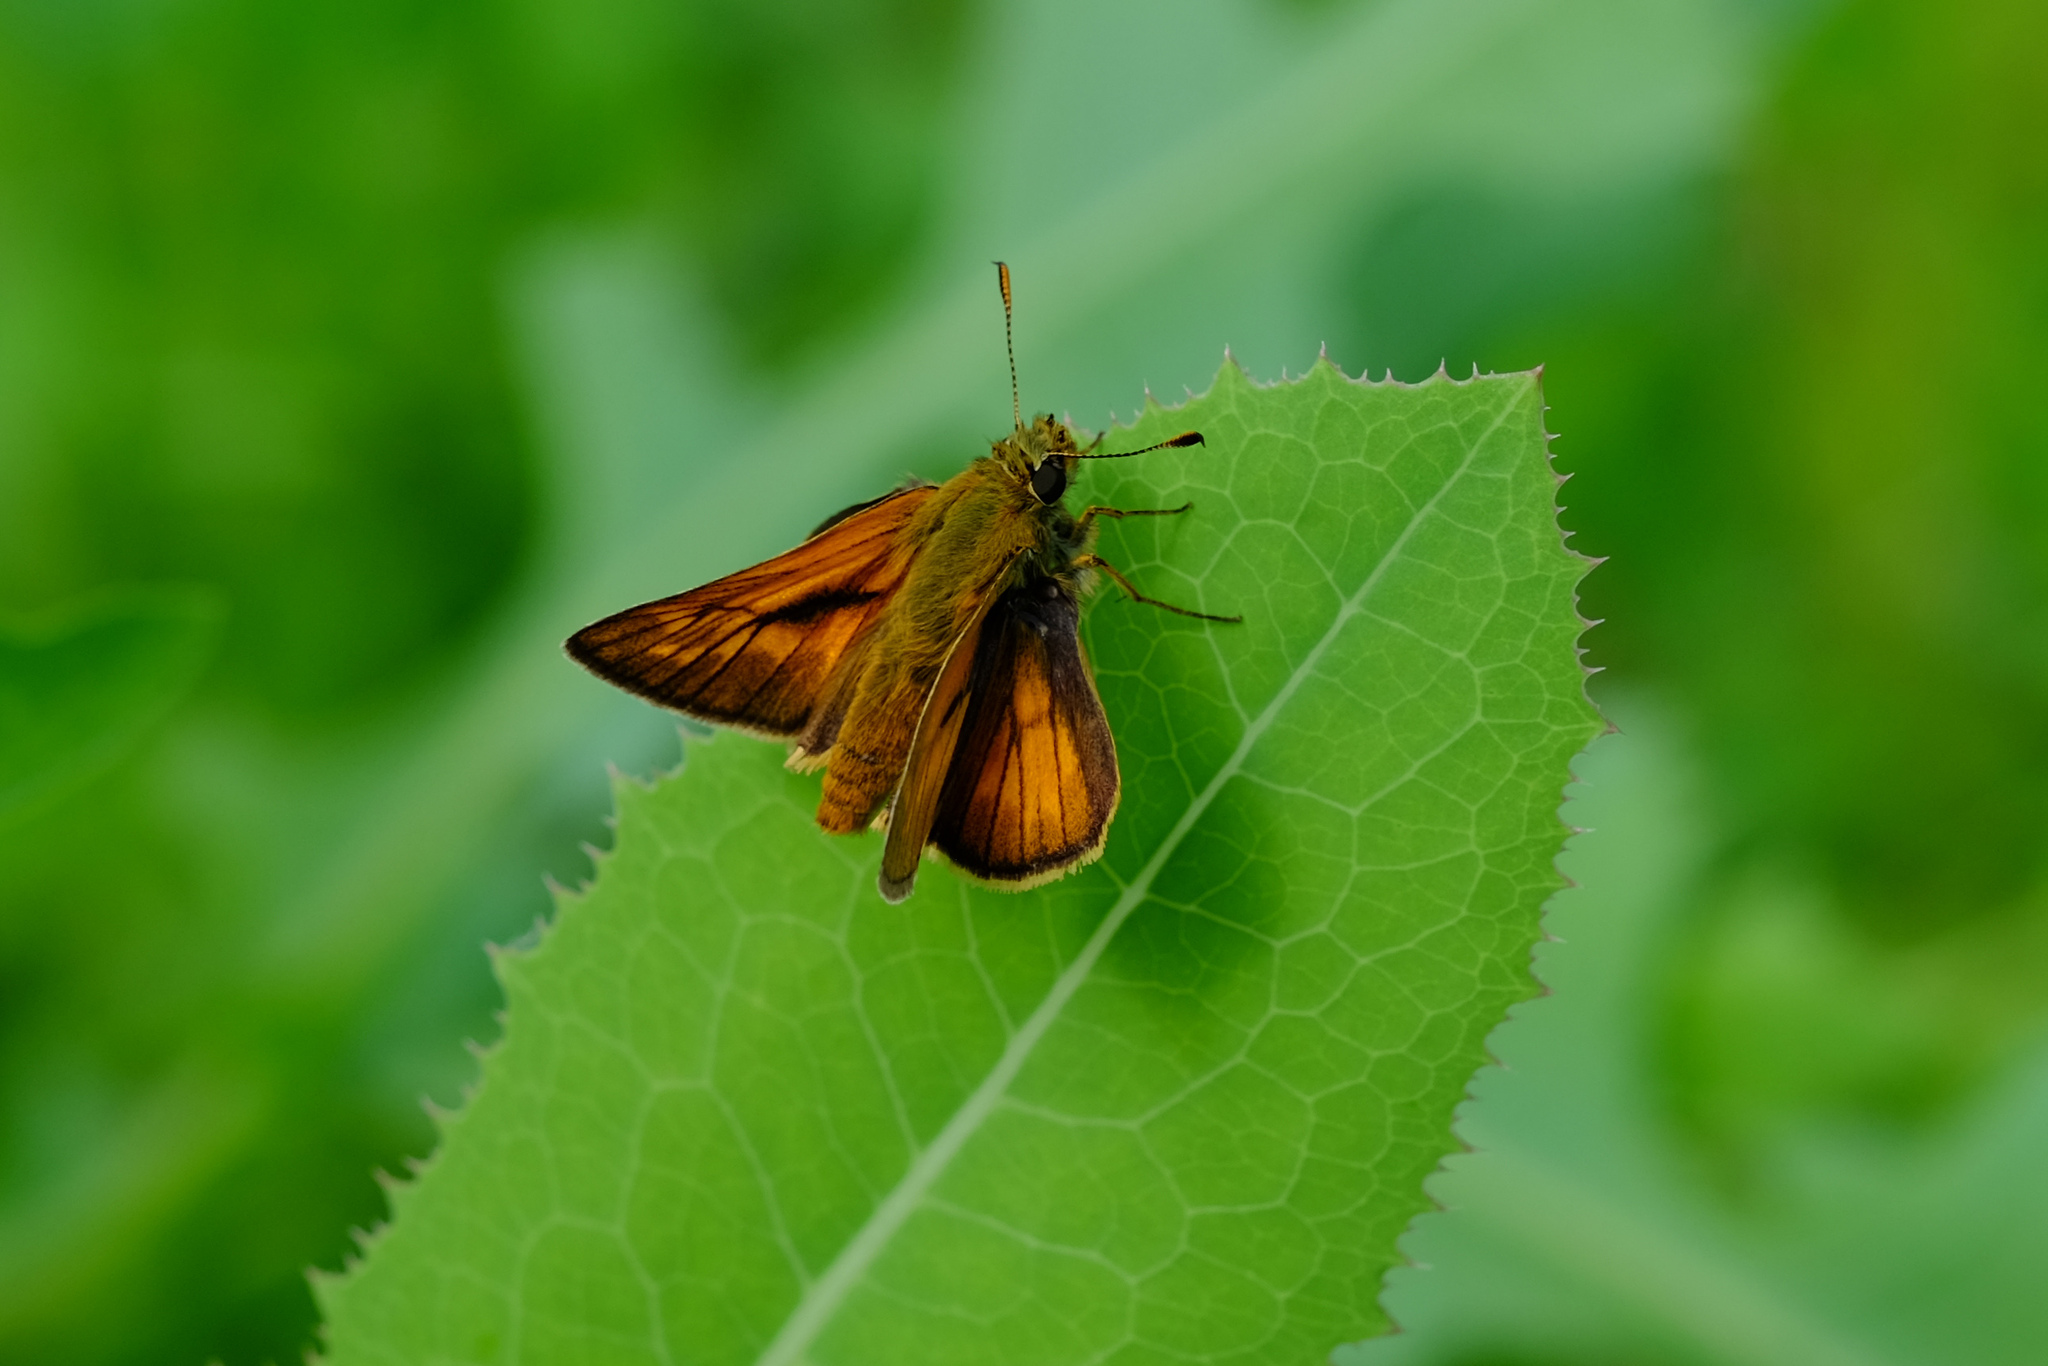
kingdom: Animalia
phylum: Arthropoda
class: Insecta
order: Lepidoptera
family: Hesperiidae
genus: Ochlodes
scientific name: Ochlodes venata
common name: Large skipper
